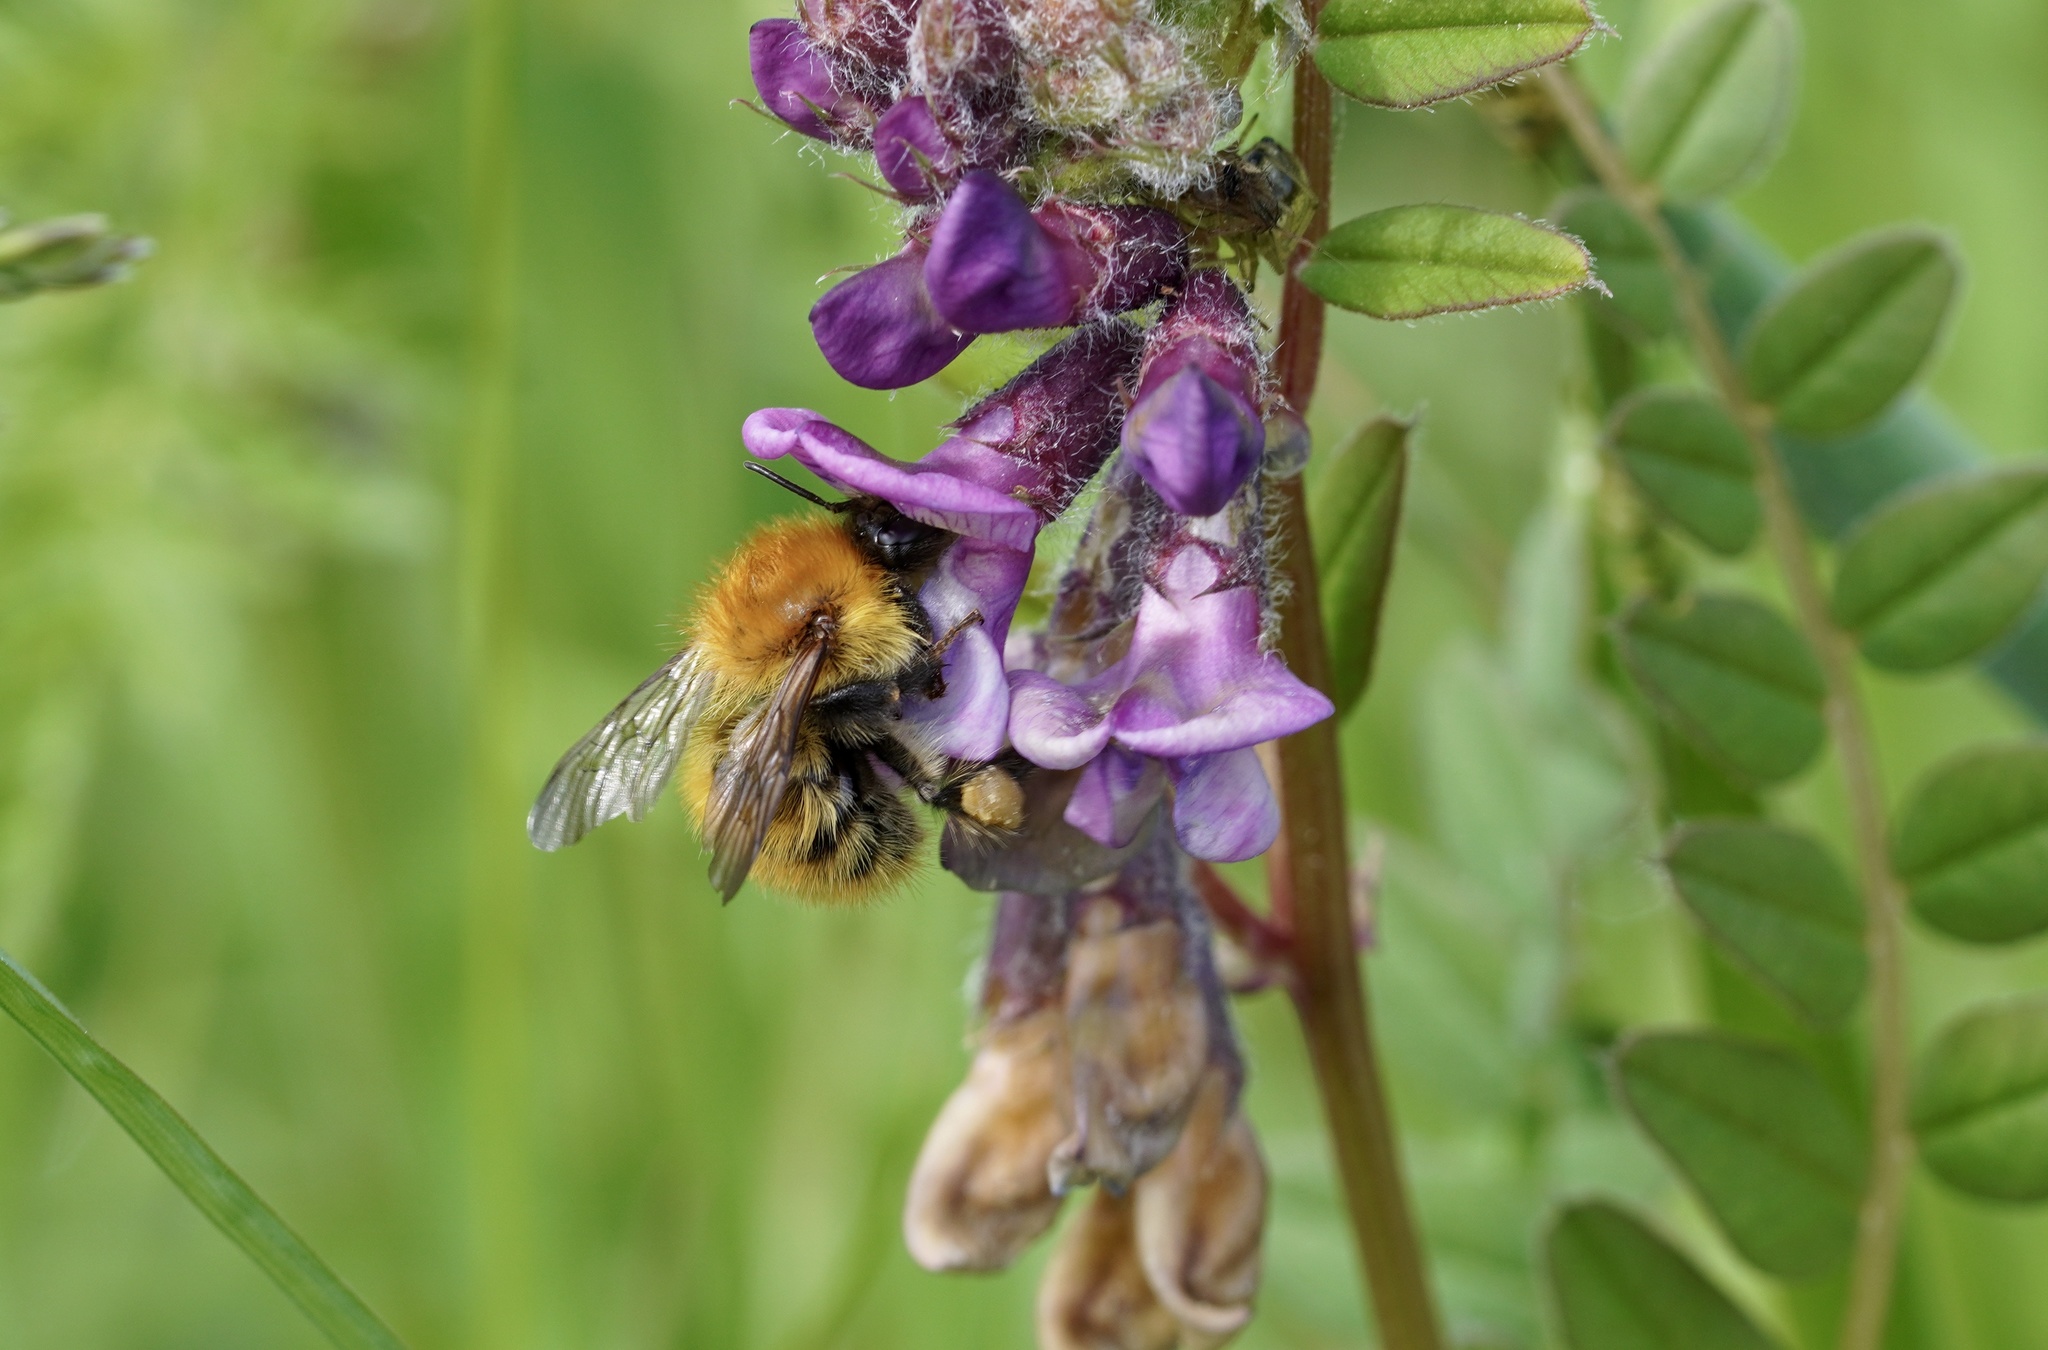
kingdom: Animalia
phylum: Arthropoda
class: Insecta
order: Hymenoptera
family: Apidae
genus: Bombus
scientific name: Bombus pascuorum
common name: Common carder bee
